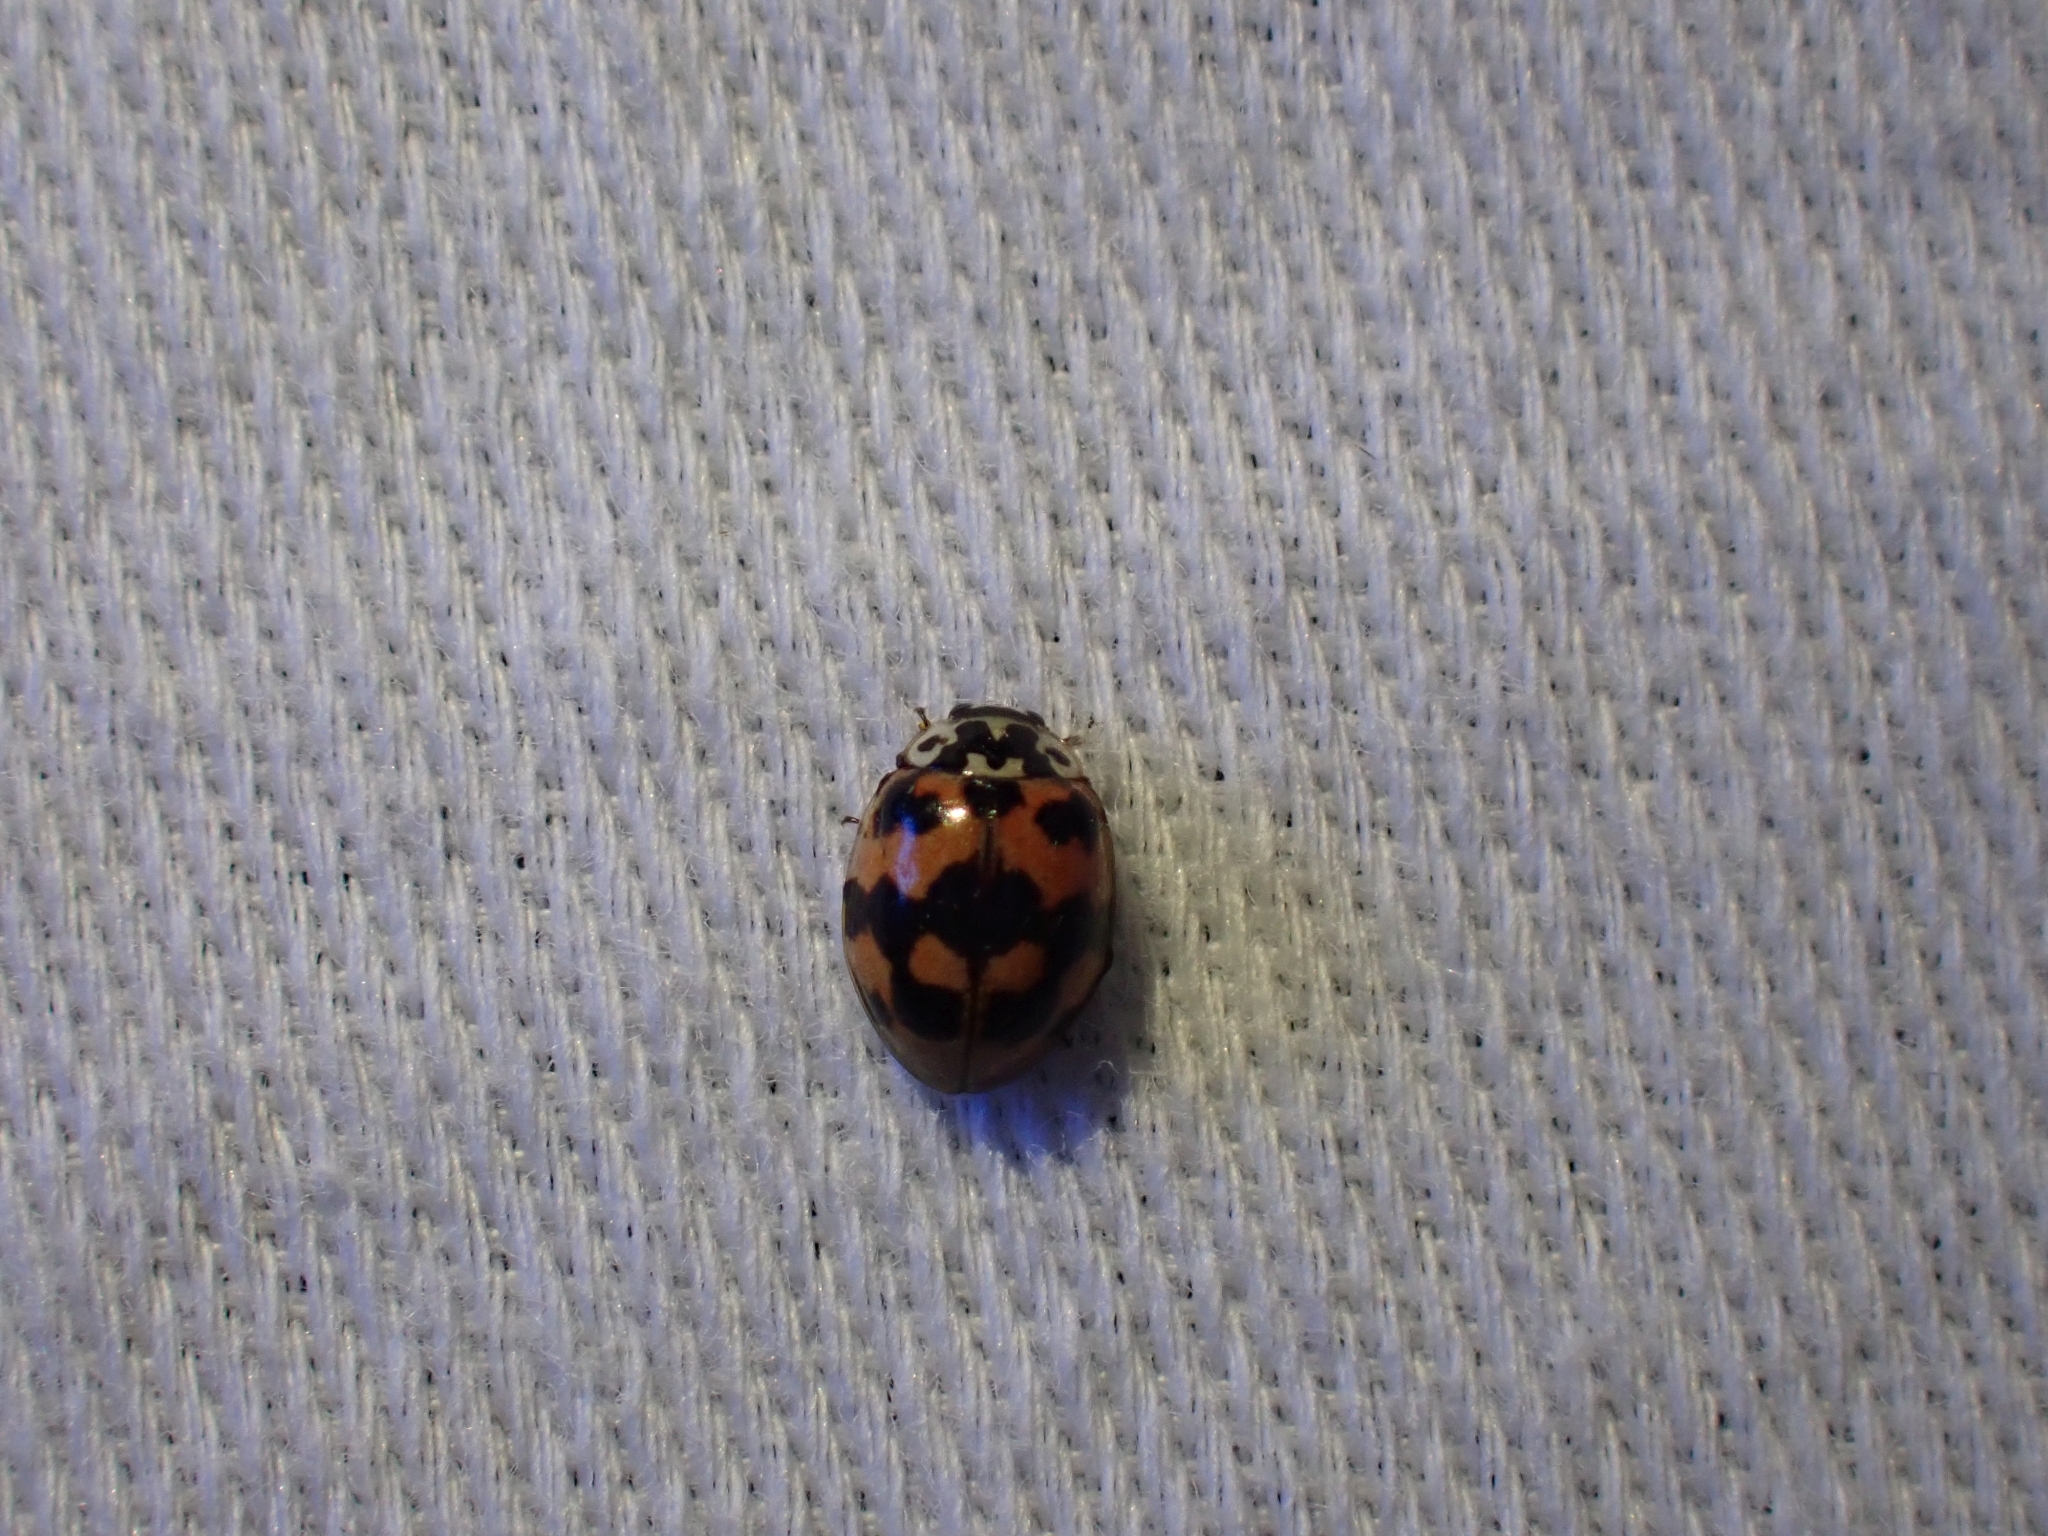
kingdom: Animalia
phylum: Arthropoda
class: Insecta
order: Coleoptera
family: Coccinellidae
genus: Adalia
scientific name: Adalia bipunctata
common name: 2-spot ladybird
